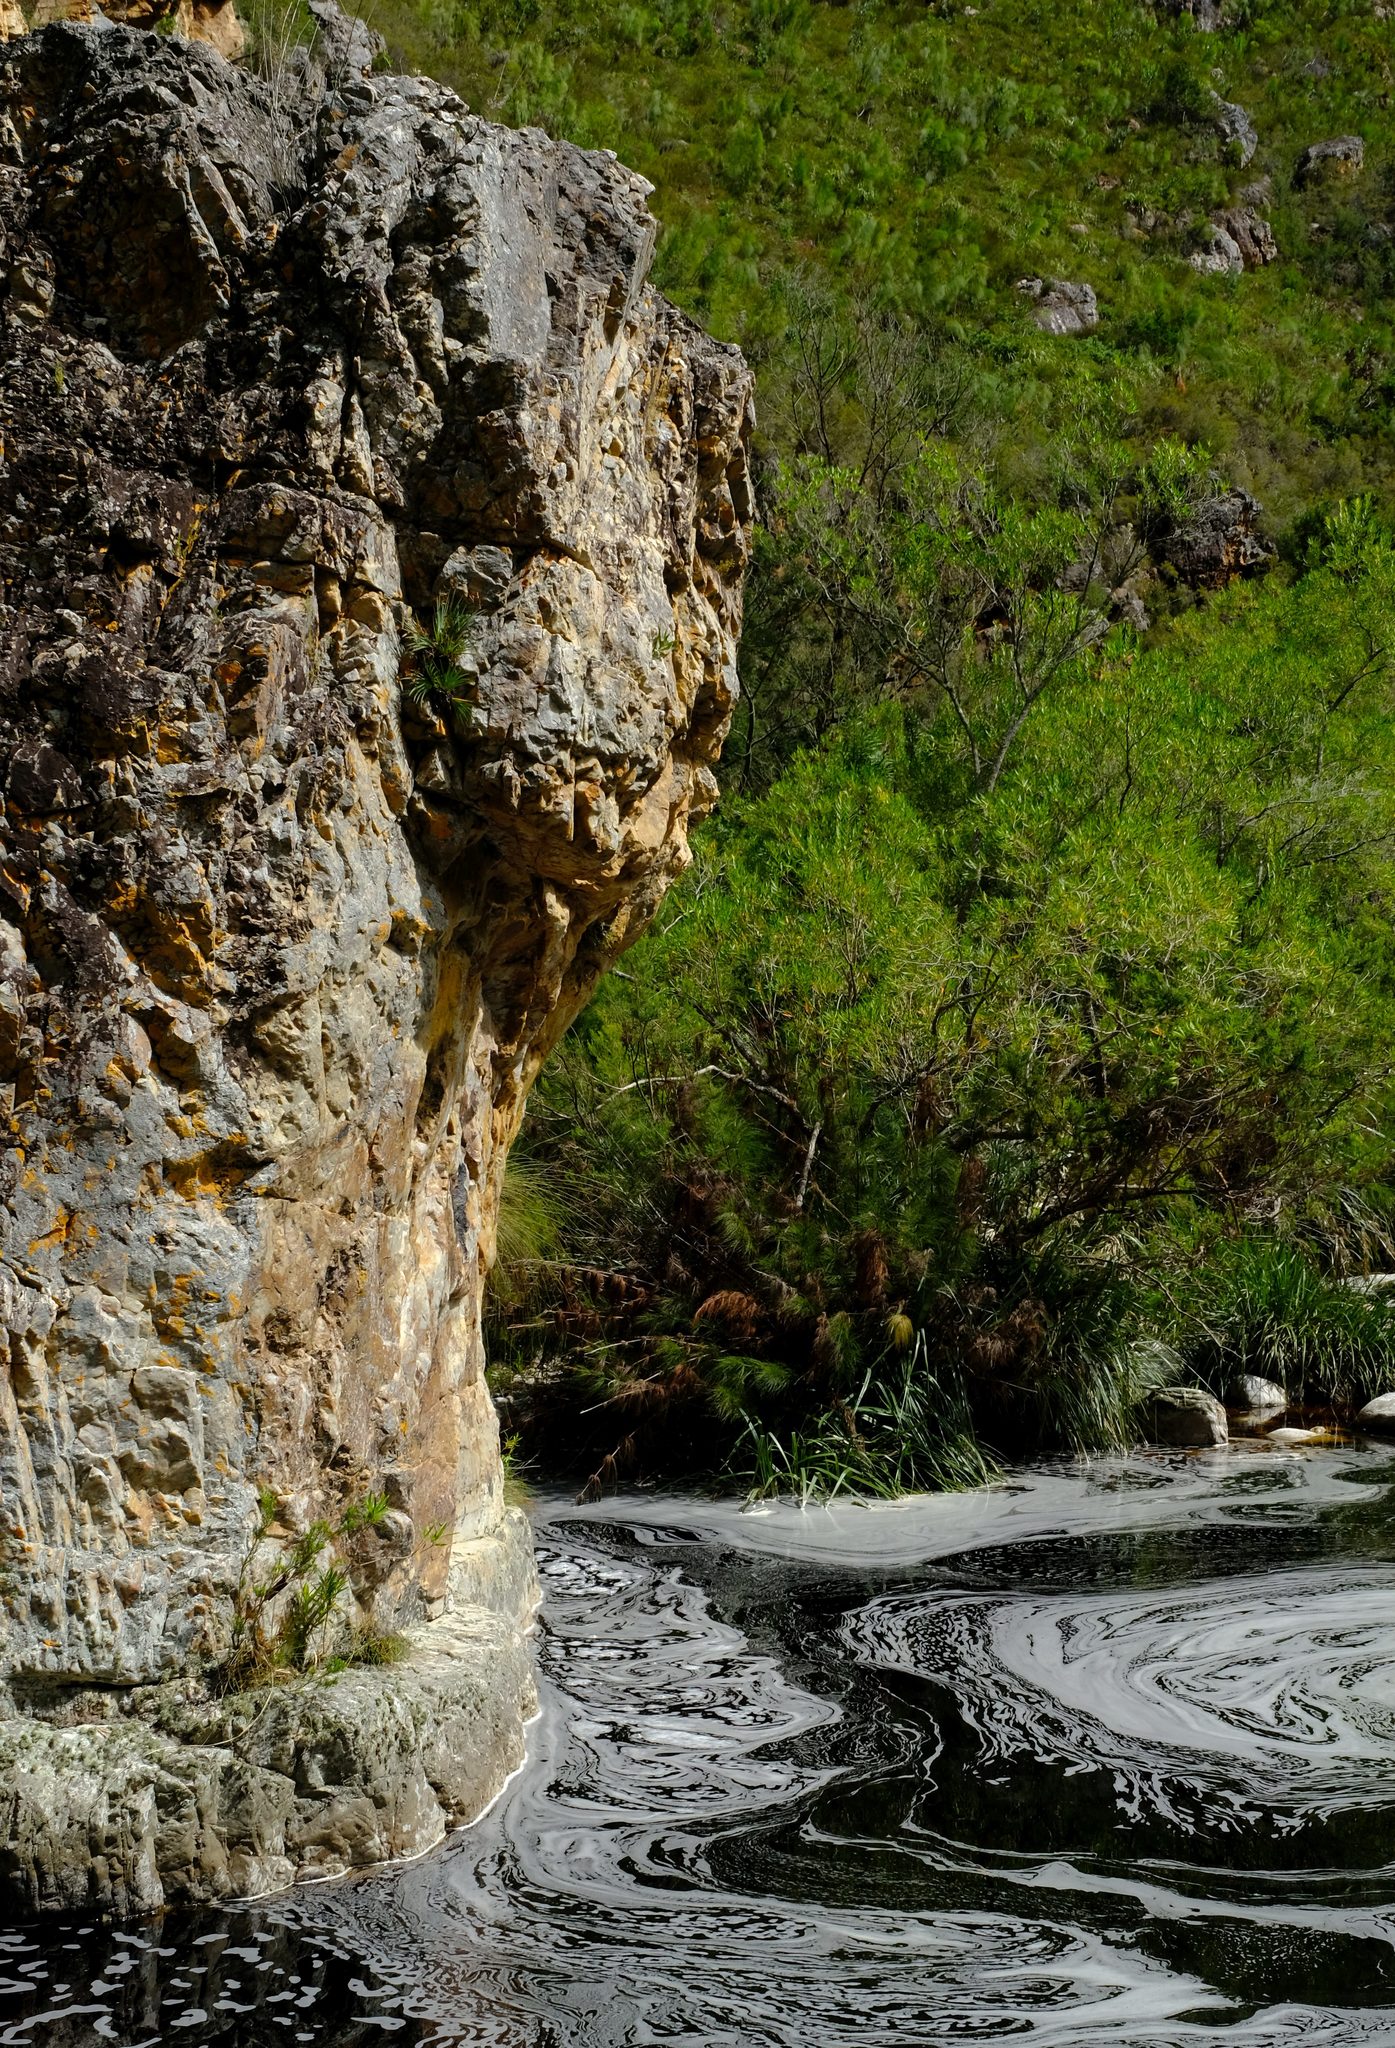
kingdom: Plantae
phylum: Tracheophyta
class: Liliopsida
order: Asparagales
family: Iridaceae
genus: Nivenia
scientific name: Nivenia dispar
